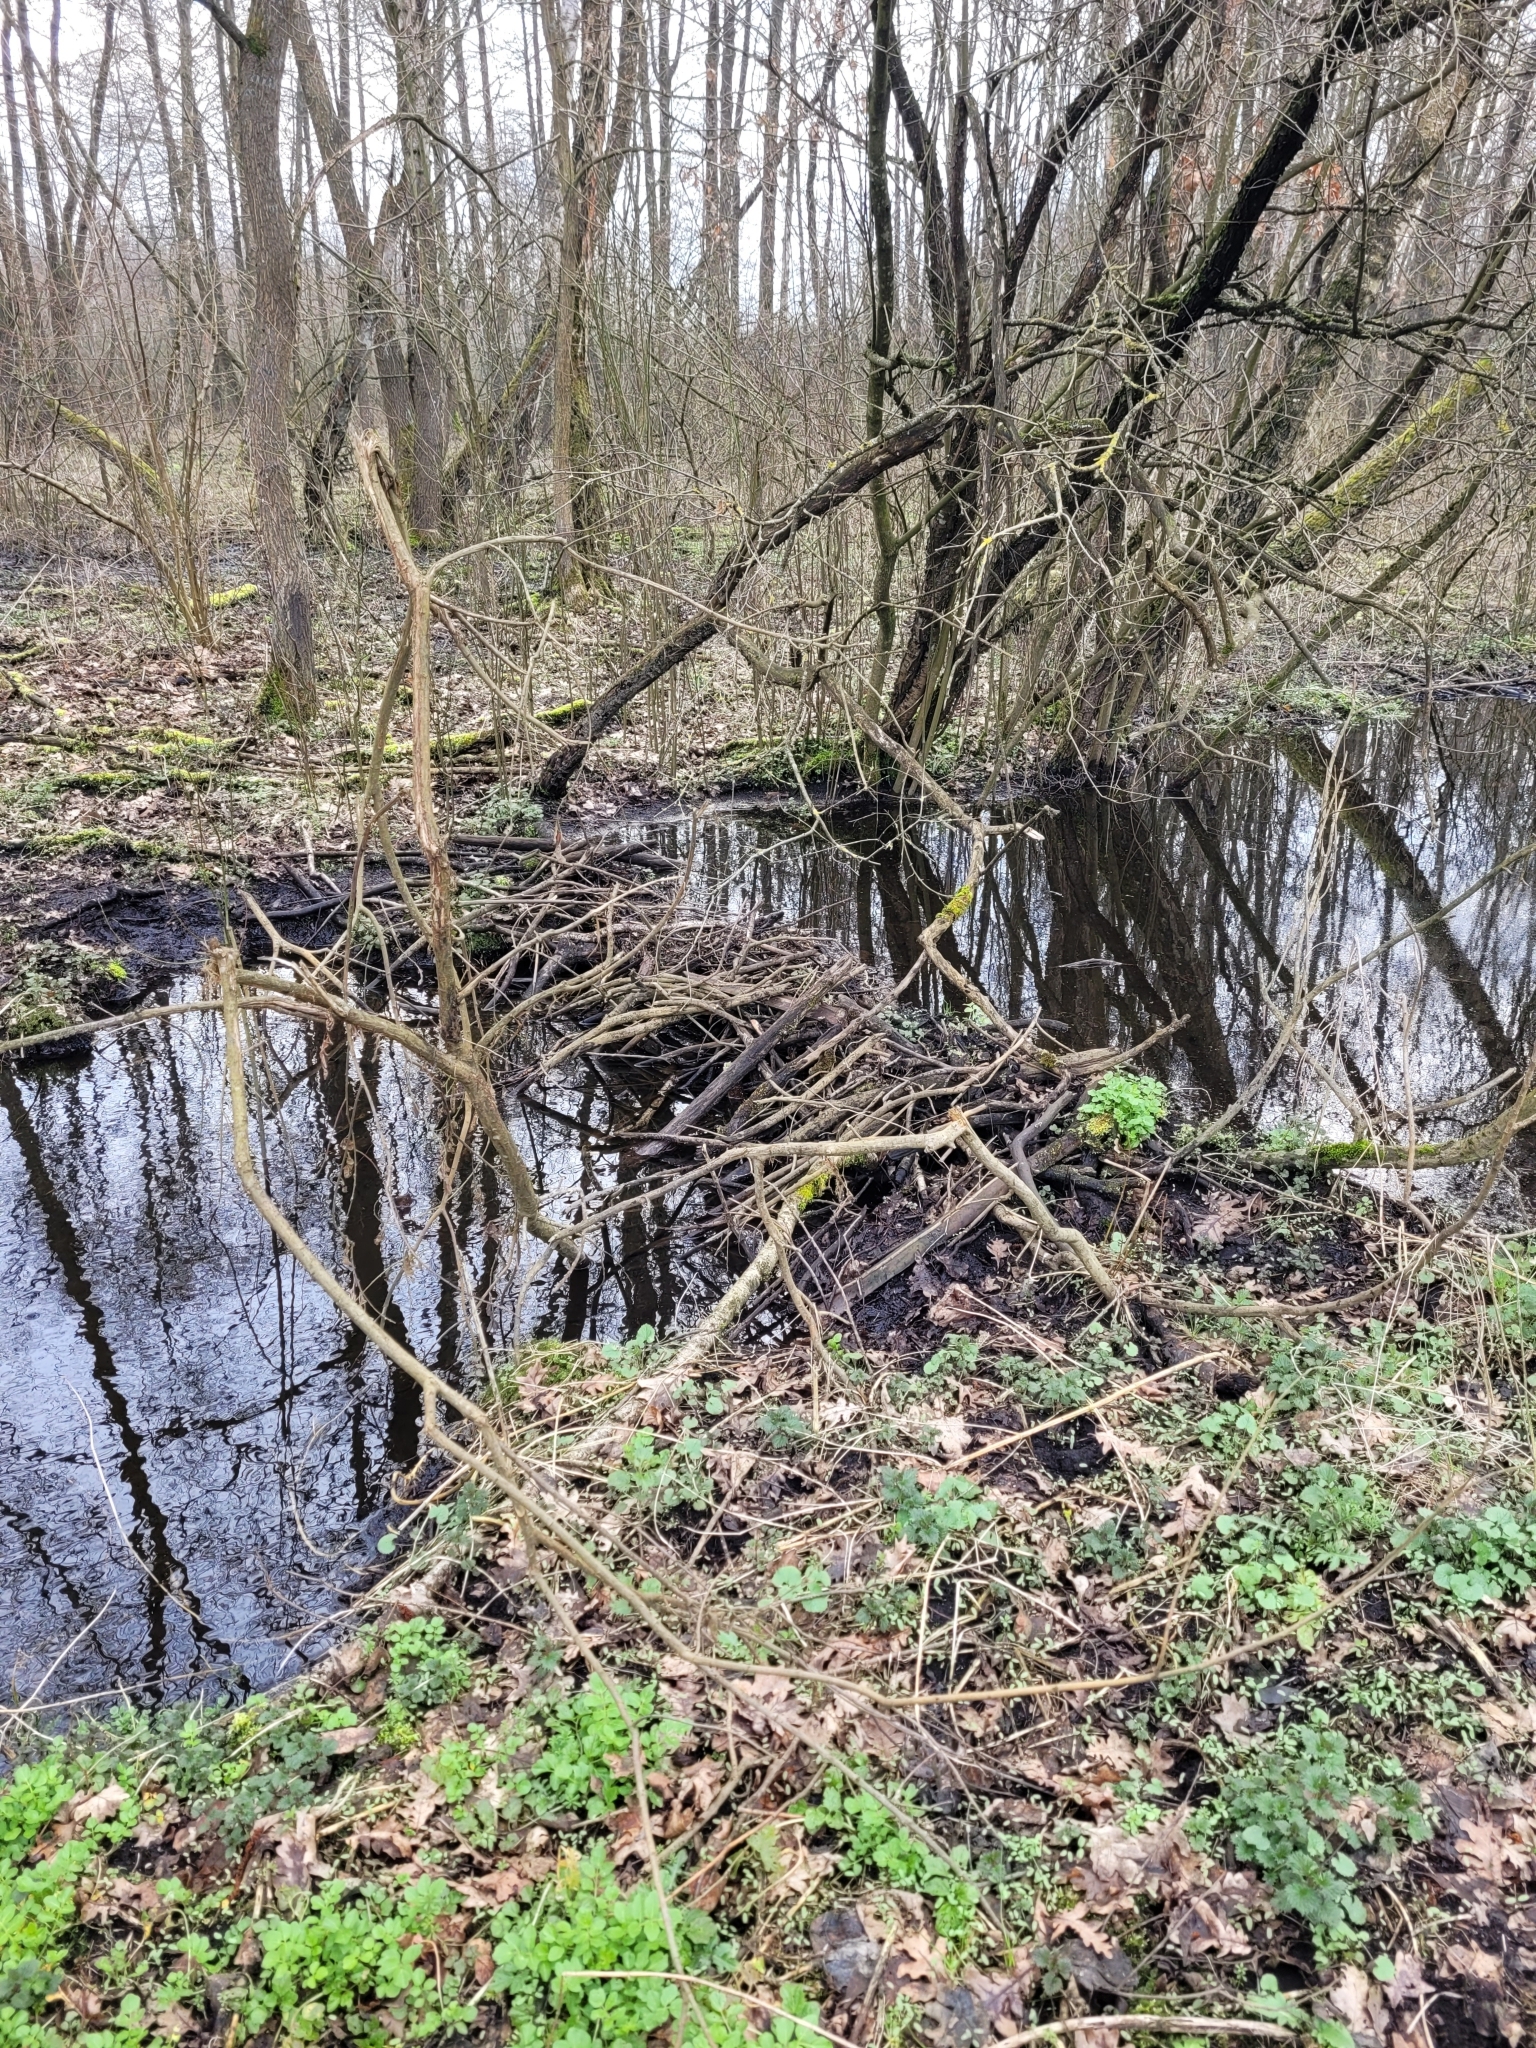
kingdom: Animalia
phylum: Chordata
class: Mammalia
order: Rodentia
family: Castoridae
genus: Castor
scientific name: Castor fiber
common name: Eurasian beaver
